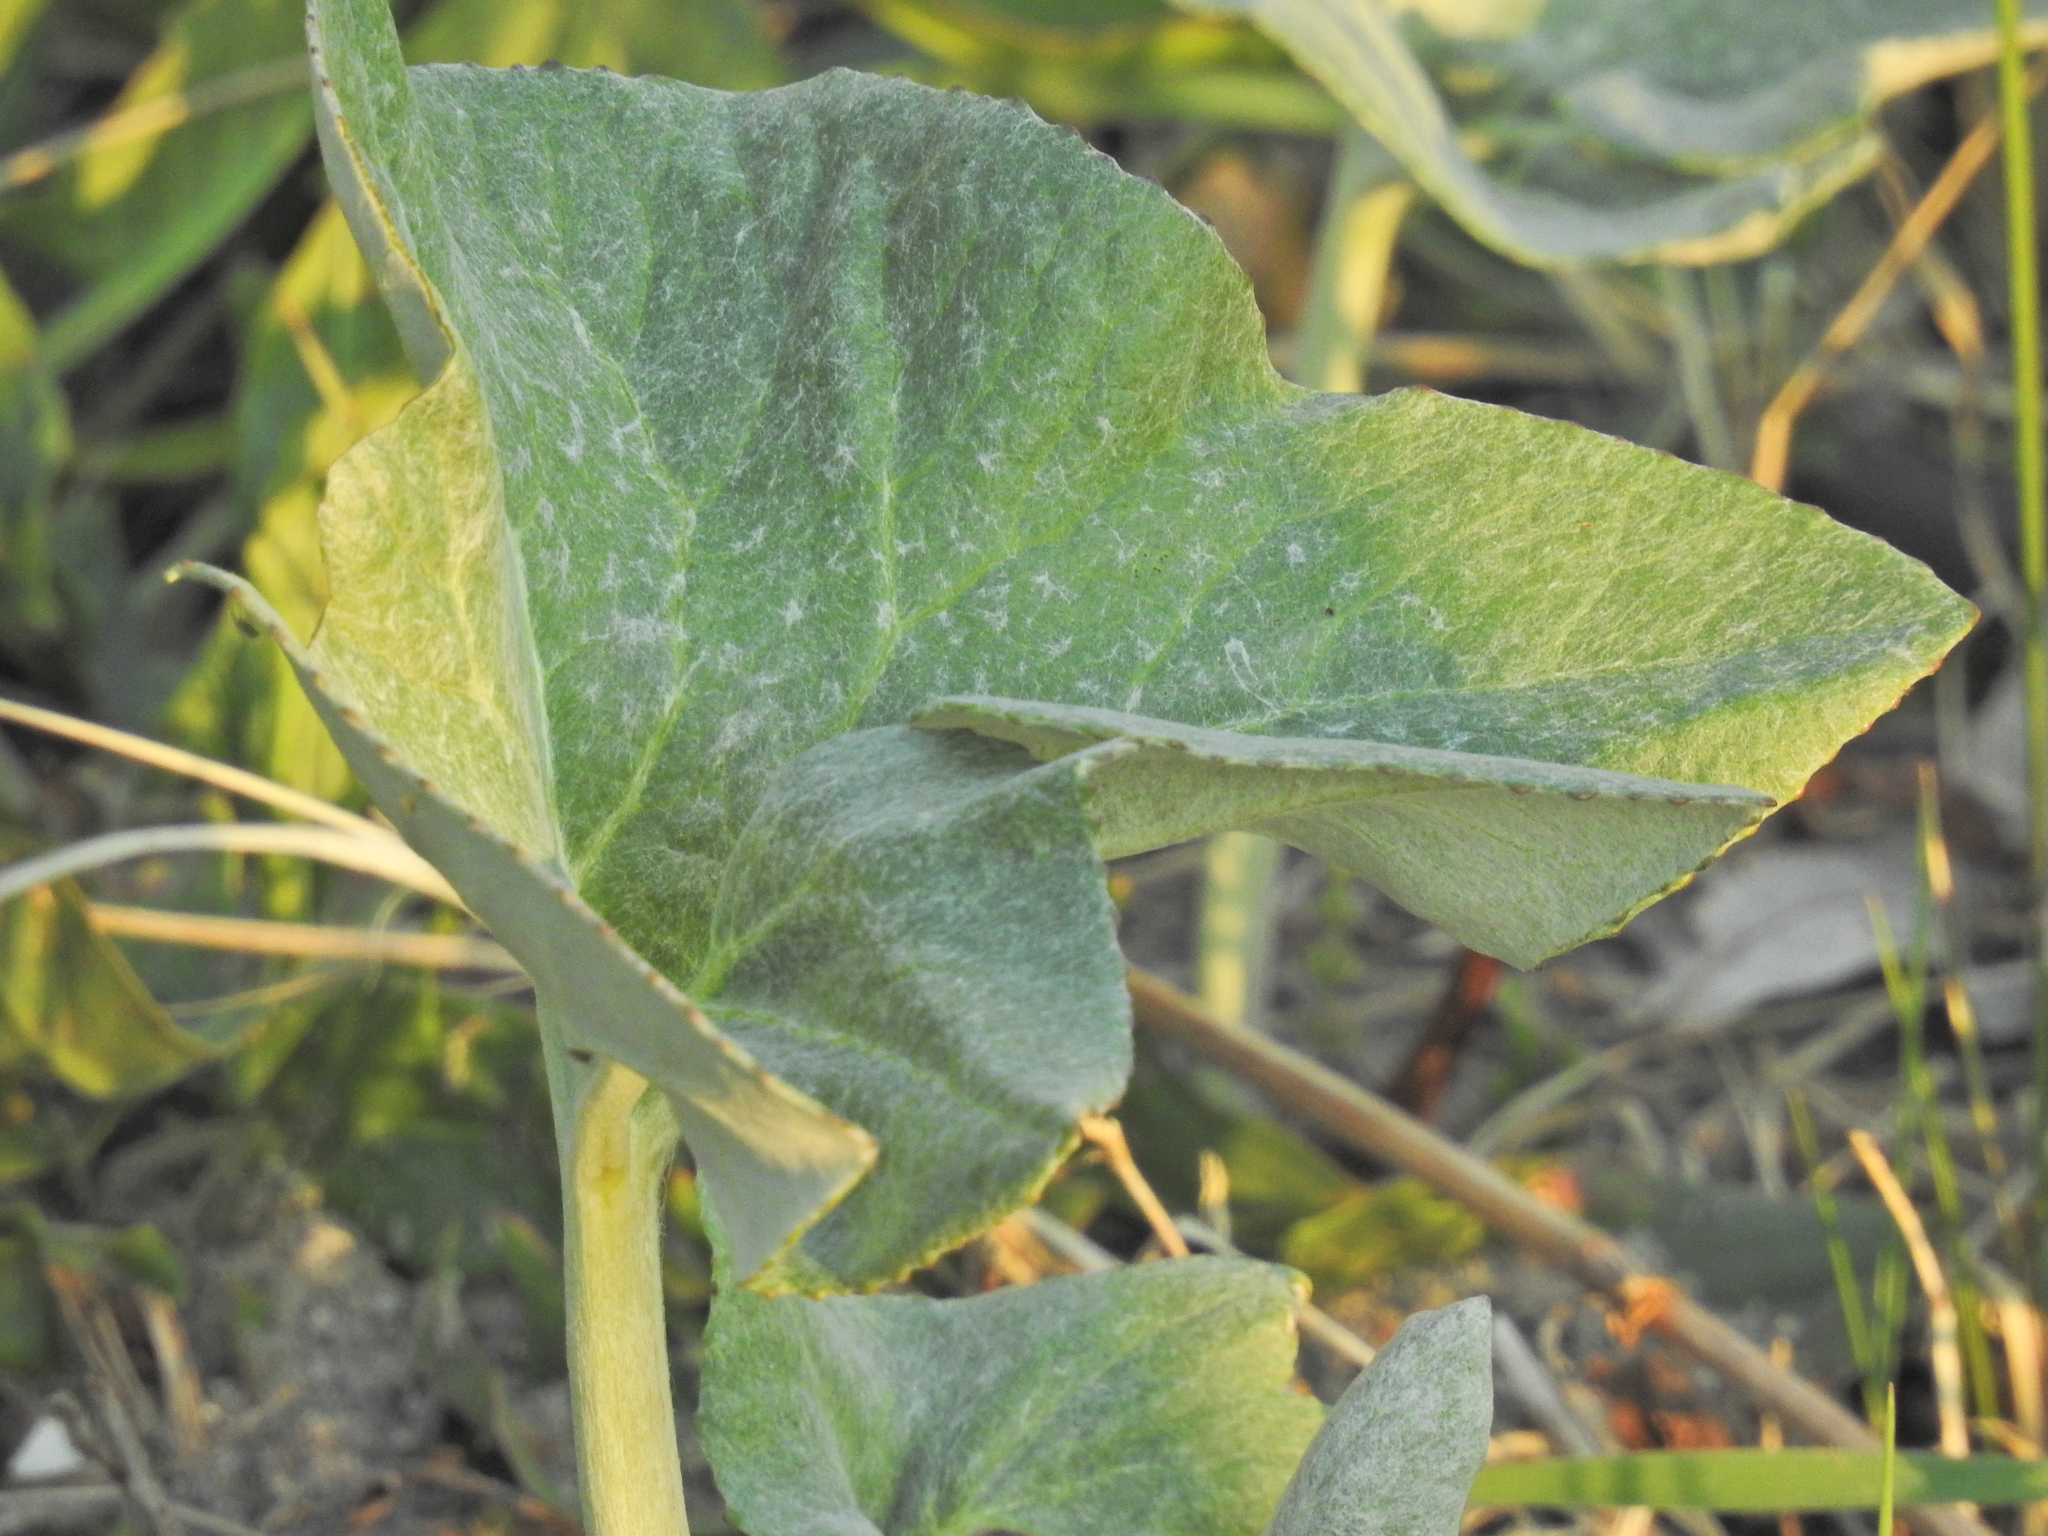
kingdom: Plantae
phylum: Tracheophyta
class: Magnoliopsida
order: Asterales
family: Asteraceae
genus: Petasites
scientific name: Petasites spurius
